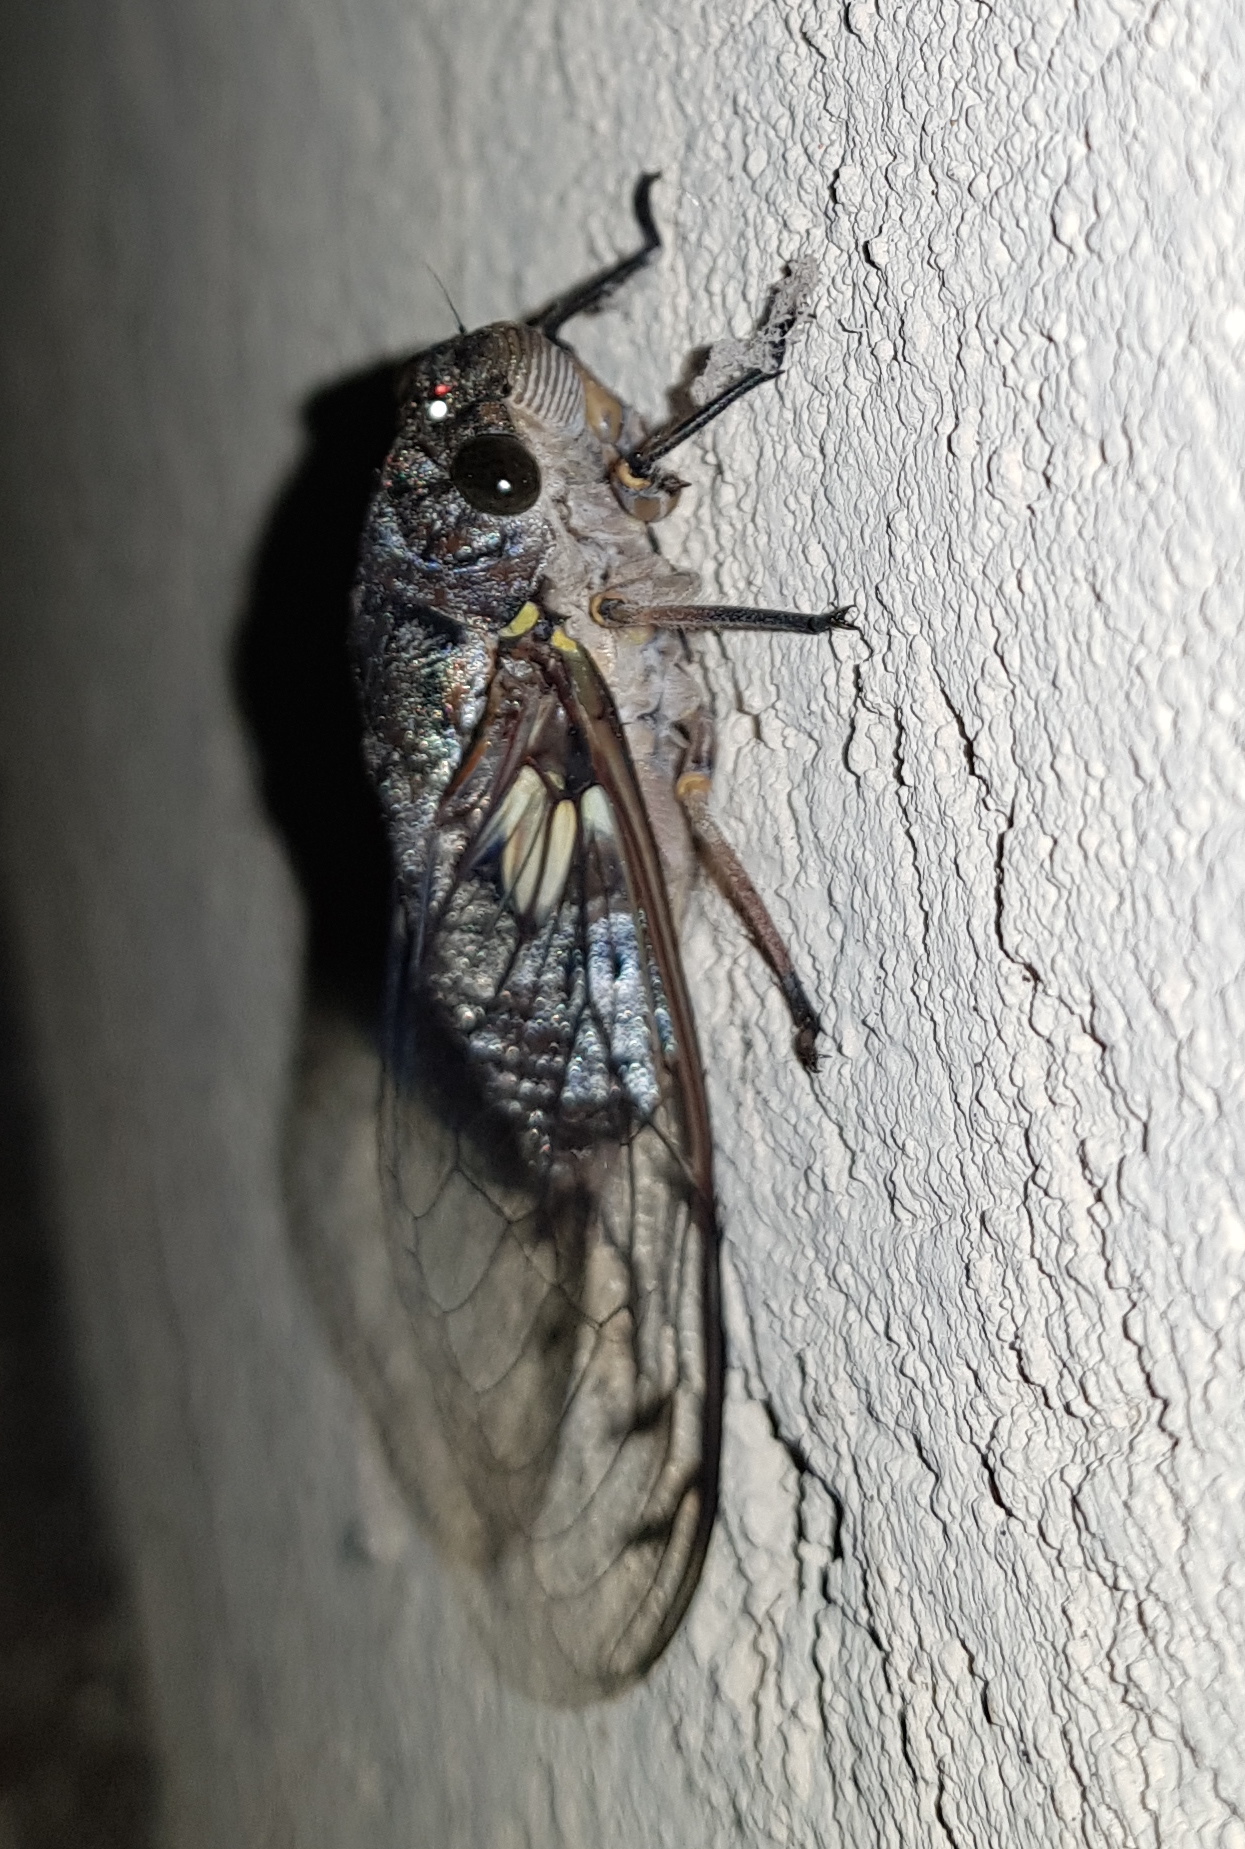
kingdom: Animalia
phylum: Arthropoda
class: Insecta
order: Hemiptera
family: Cicadidae
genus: Quesada
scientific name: Quesada gigas
